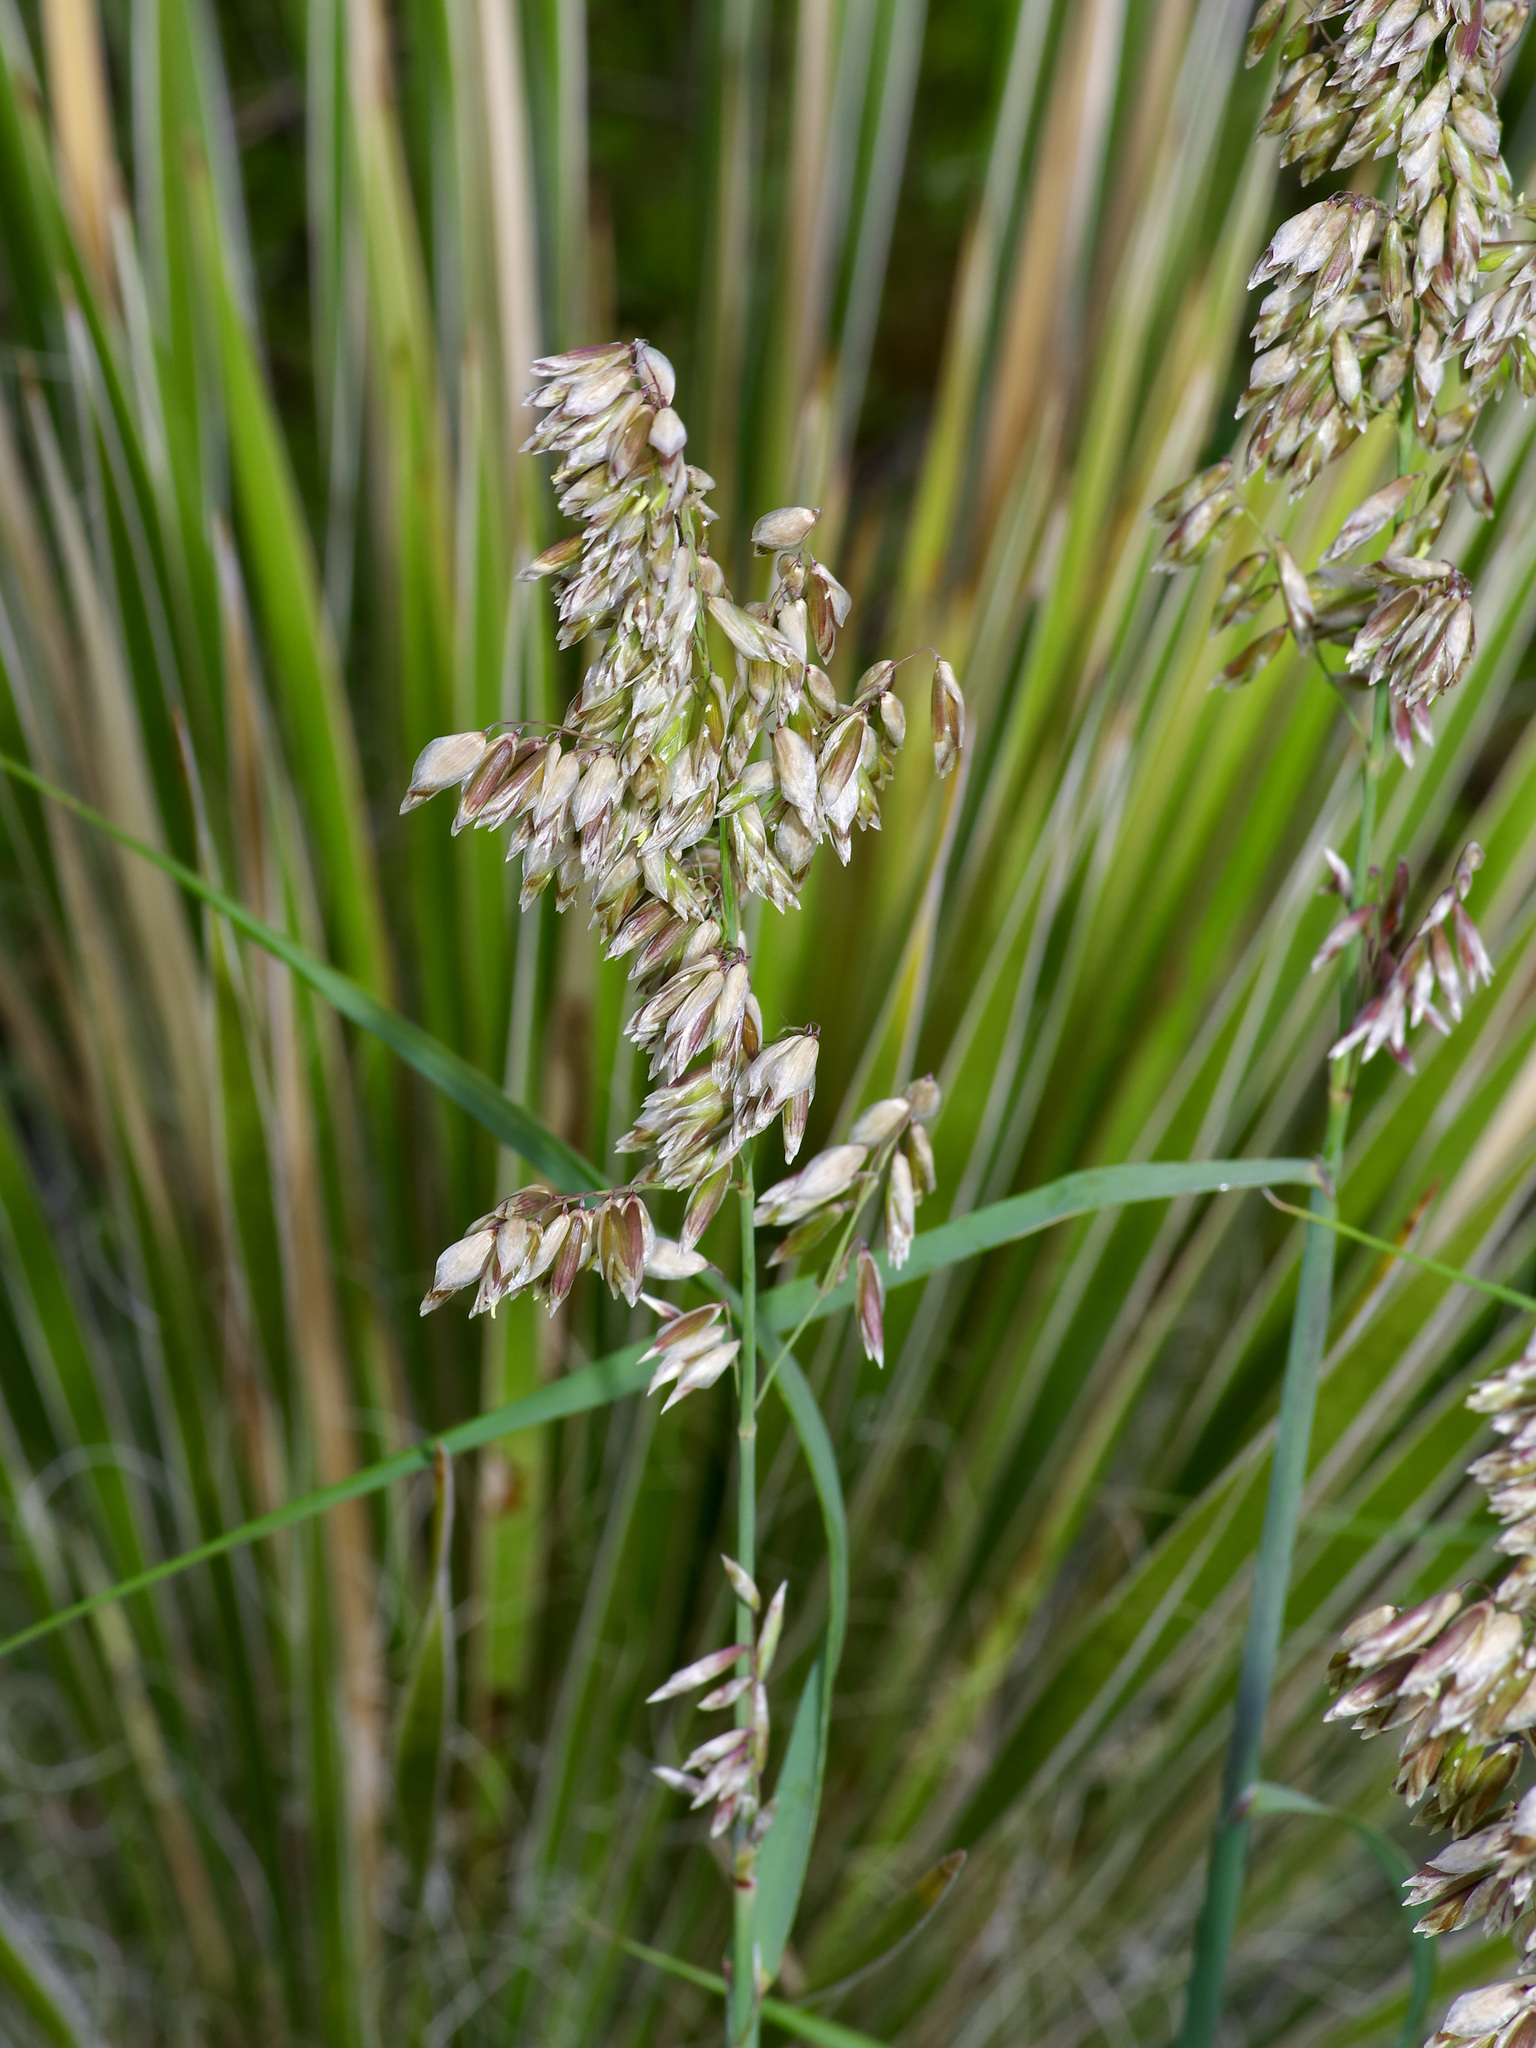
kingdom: Plantae
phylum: Tracheophyta
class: Liliopsida
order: Poales
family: Poaceae
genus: Melica
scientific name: Melica nitens
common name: Three-flower melic
